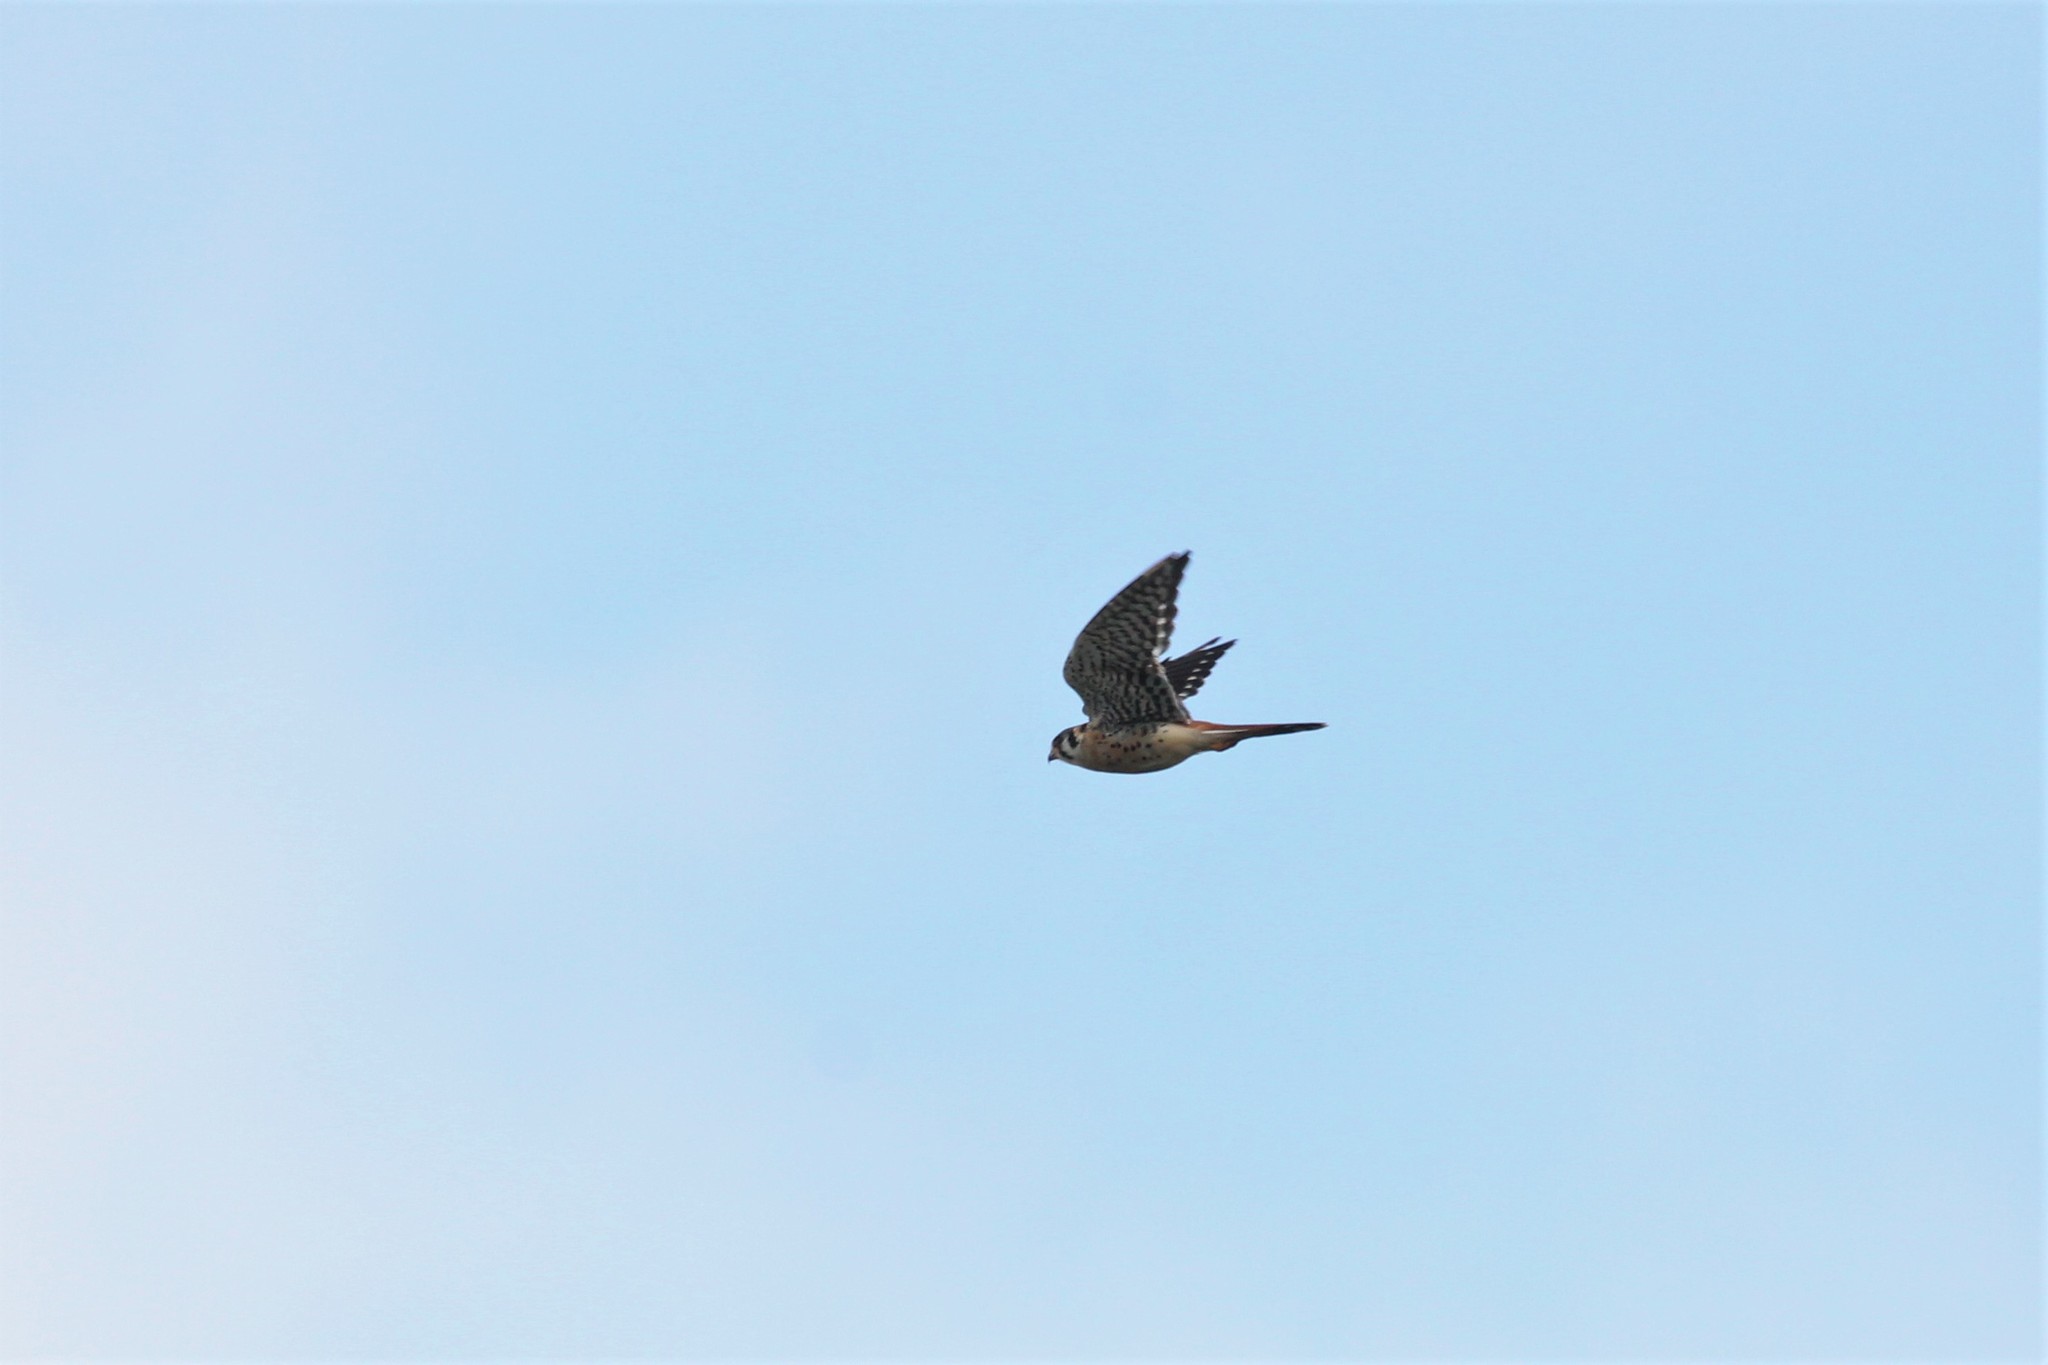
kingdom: Animalia
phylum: Chordata
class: Aves
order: Falconiformes
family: Falconidae
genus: Falco
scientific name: Falco sparverius
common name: American kestrel
